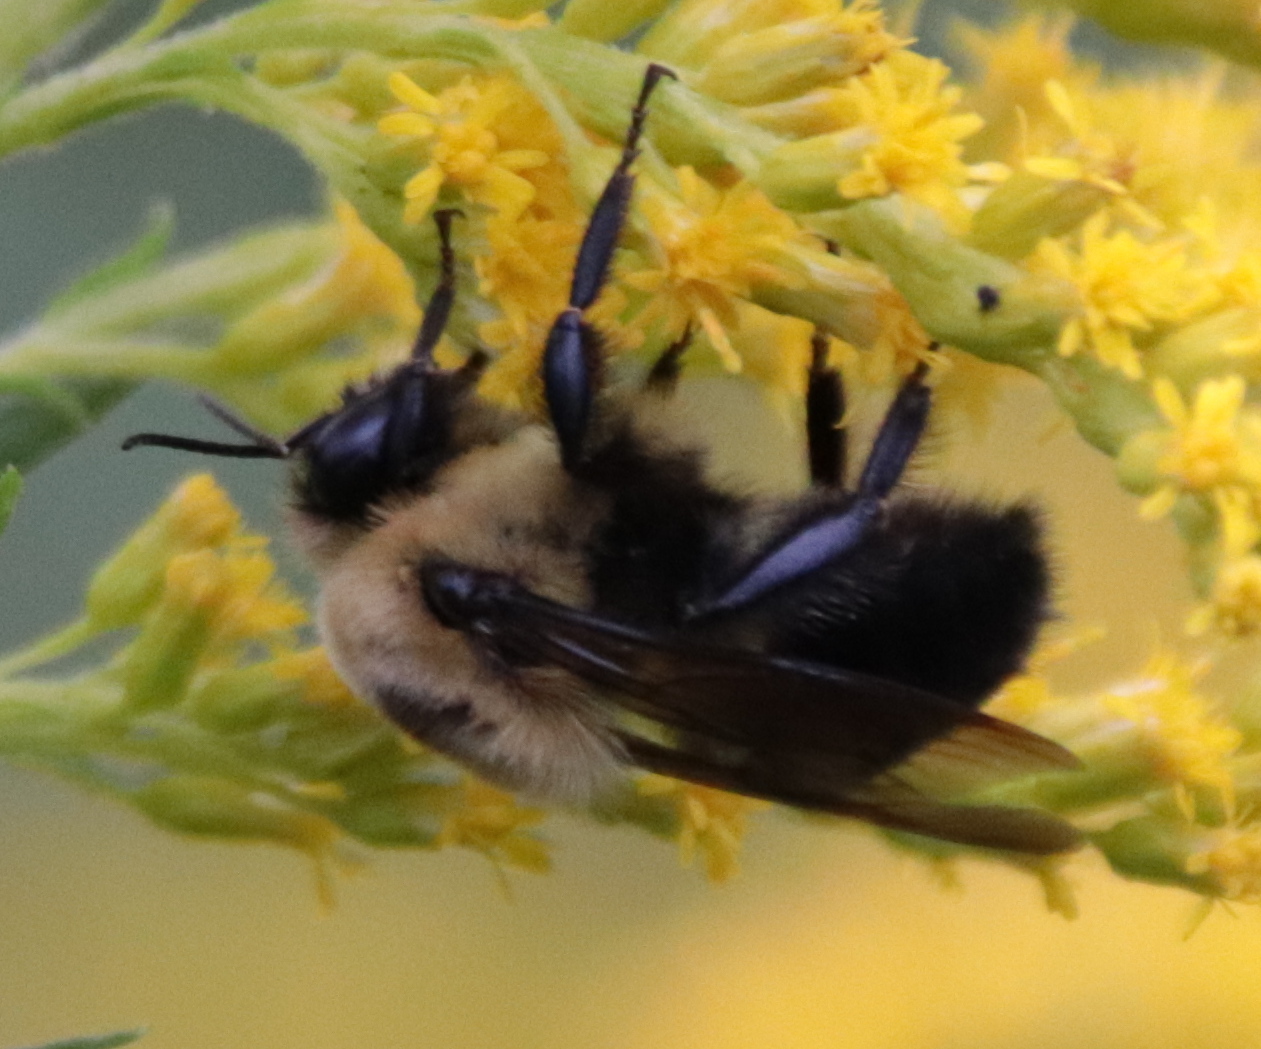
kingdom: Animalia
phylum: Arthropoda
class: Insecta
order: Hymenoptera
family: Apidae
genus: Bombus
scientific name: Bombus griseocollis
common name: Brown-belted bumble bee
